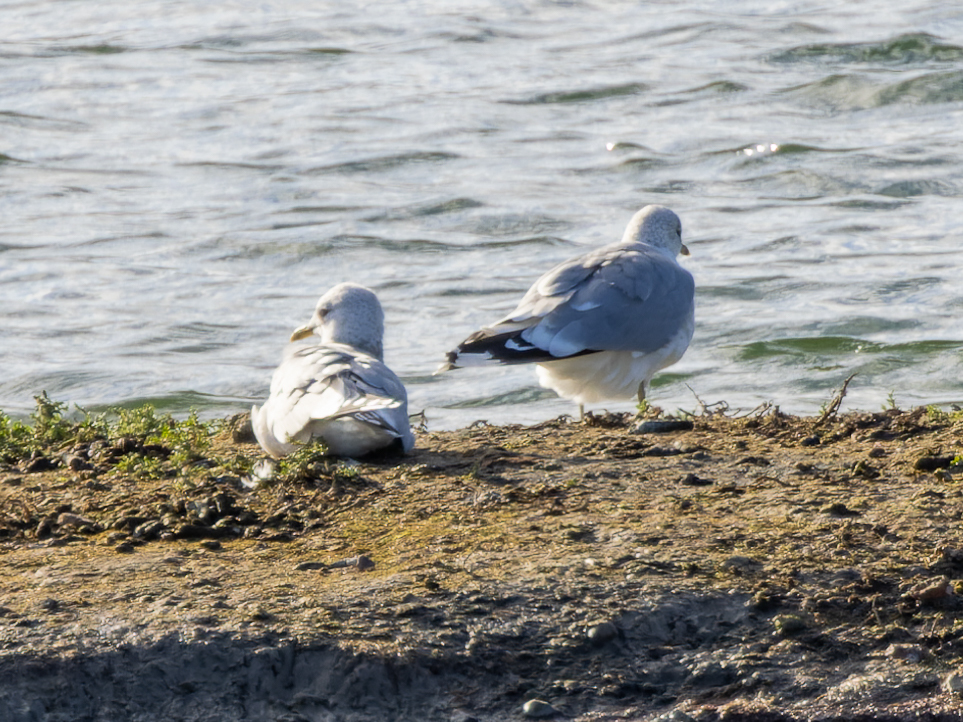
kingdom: Animalia
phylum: Chordata
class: Aves
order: Charadriiformes
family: Laridae
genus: Larus
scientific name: Larus canus
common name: Mew gull
